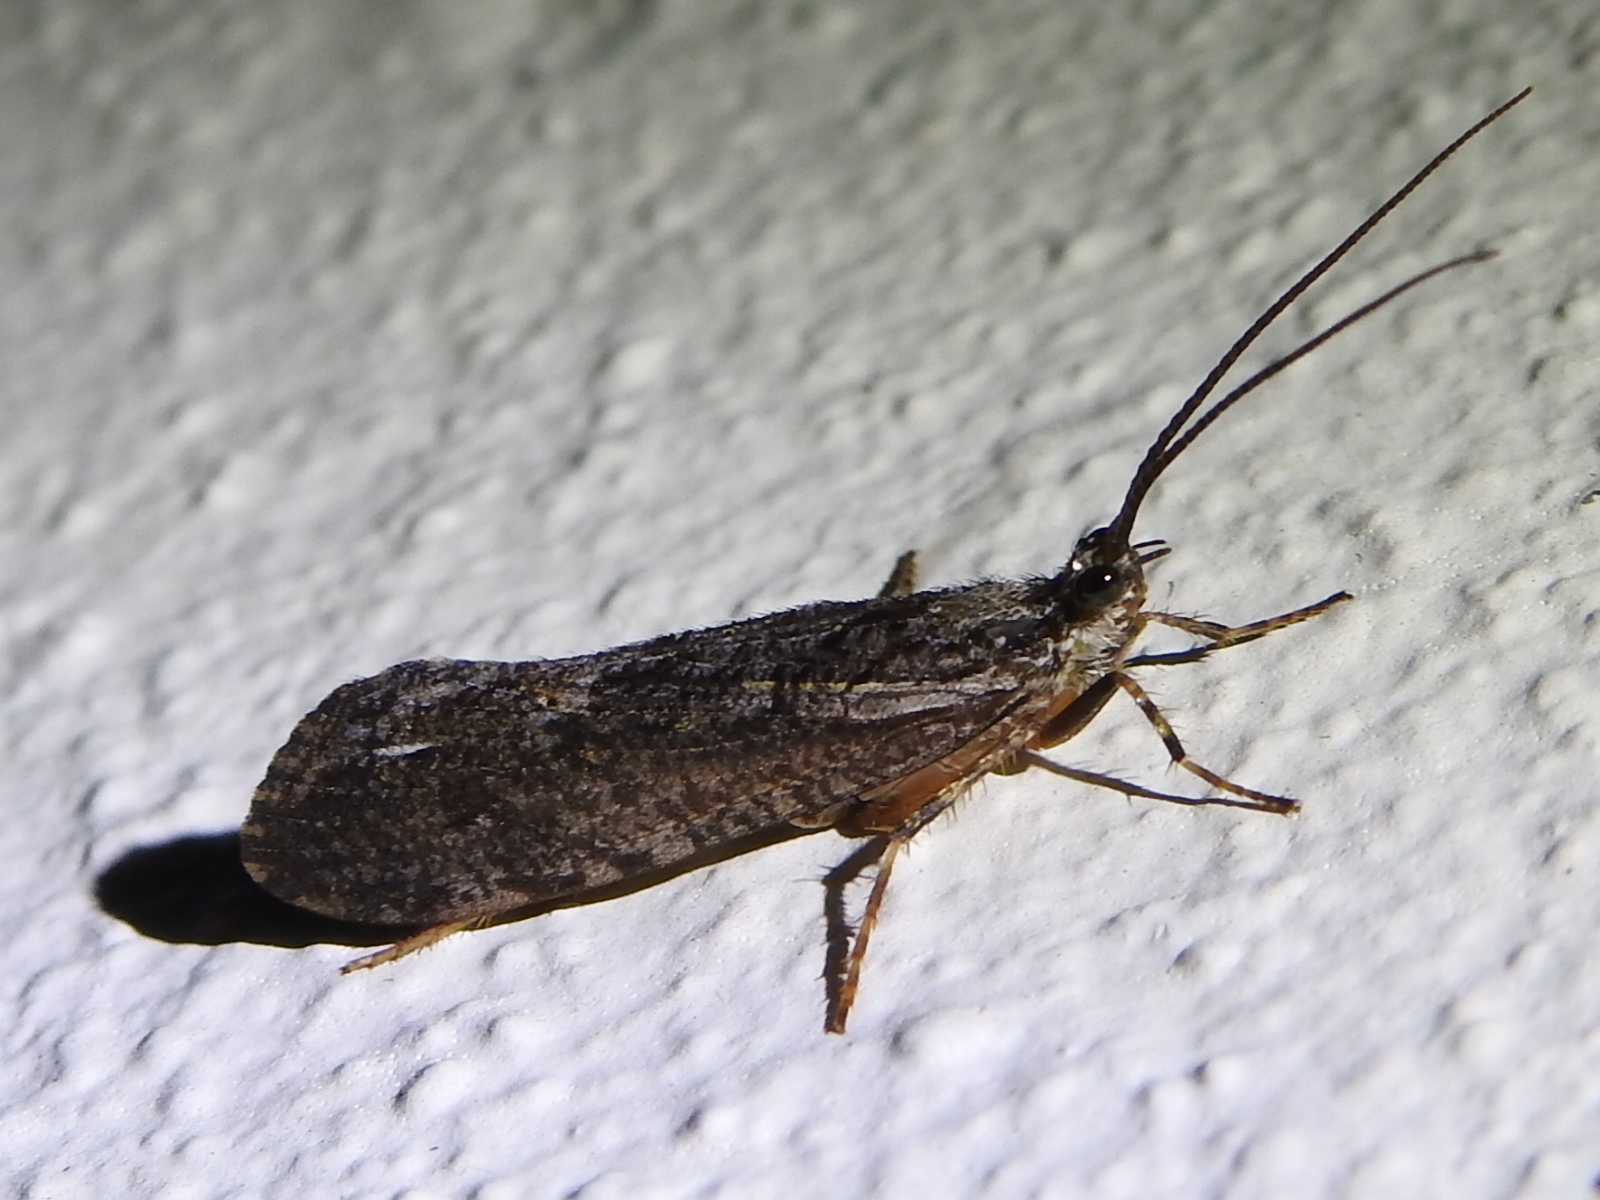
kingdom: Animalia
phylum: Arthropoda
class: Insecta
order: Trichoptera
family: Phryganeidae
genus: Agrypnia
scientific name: Agrypnia vestita
